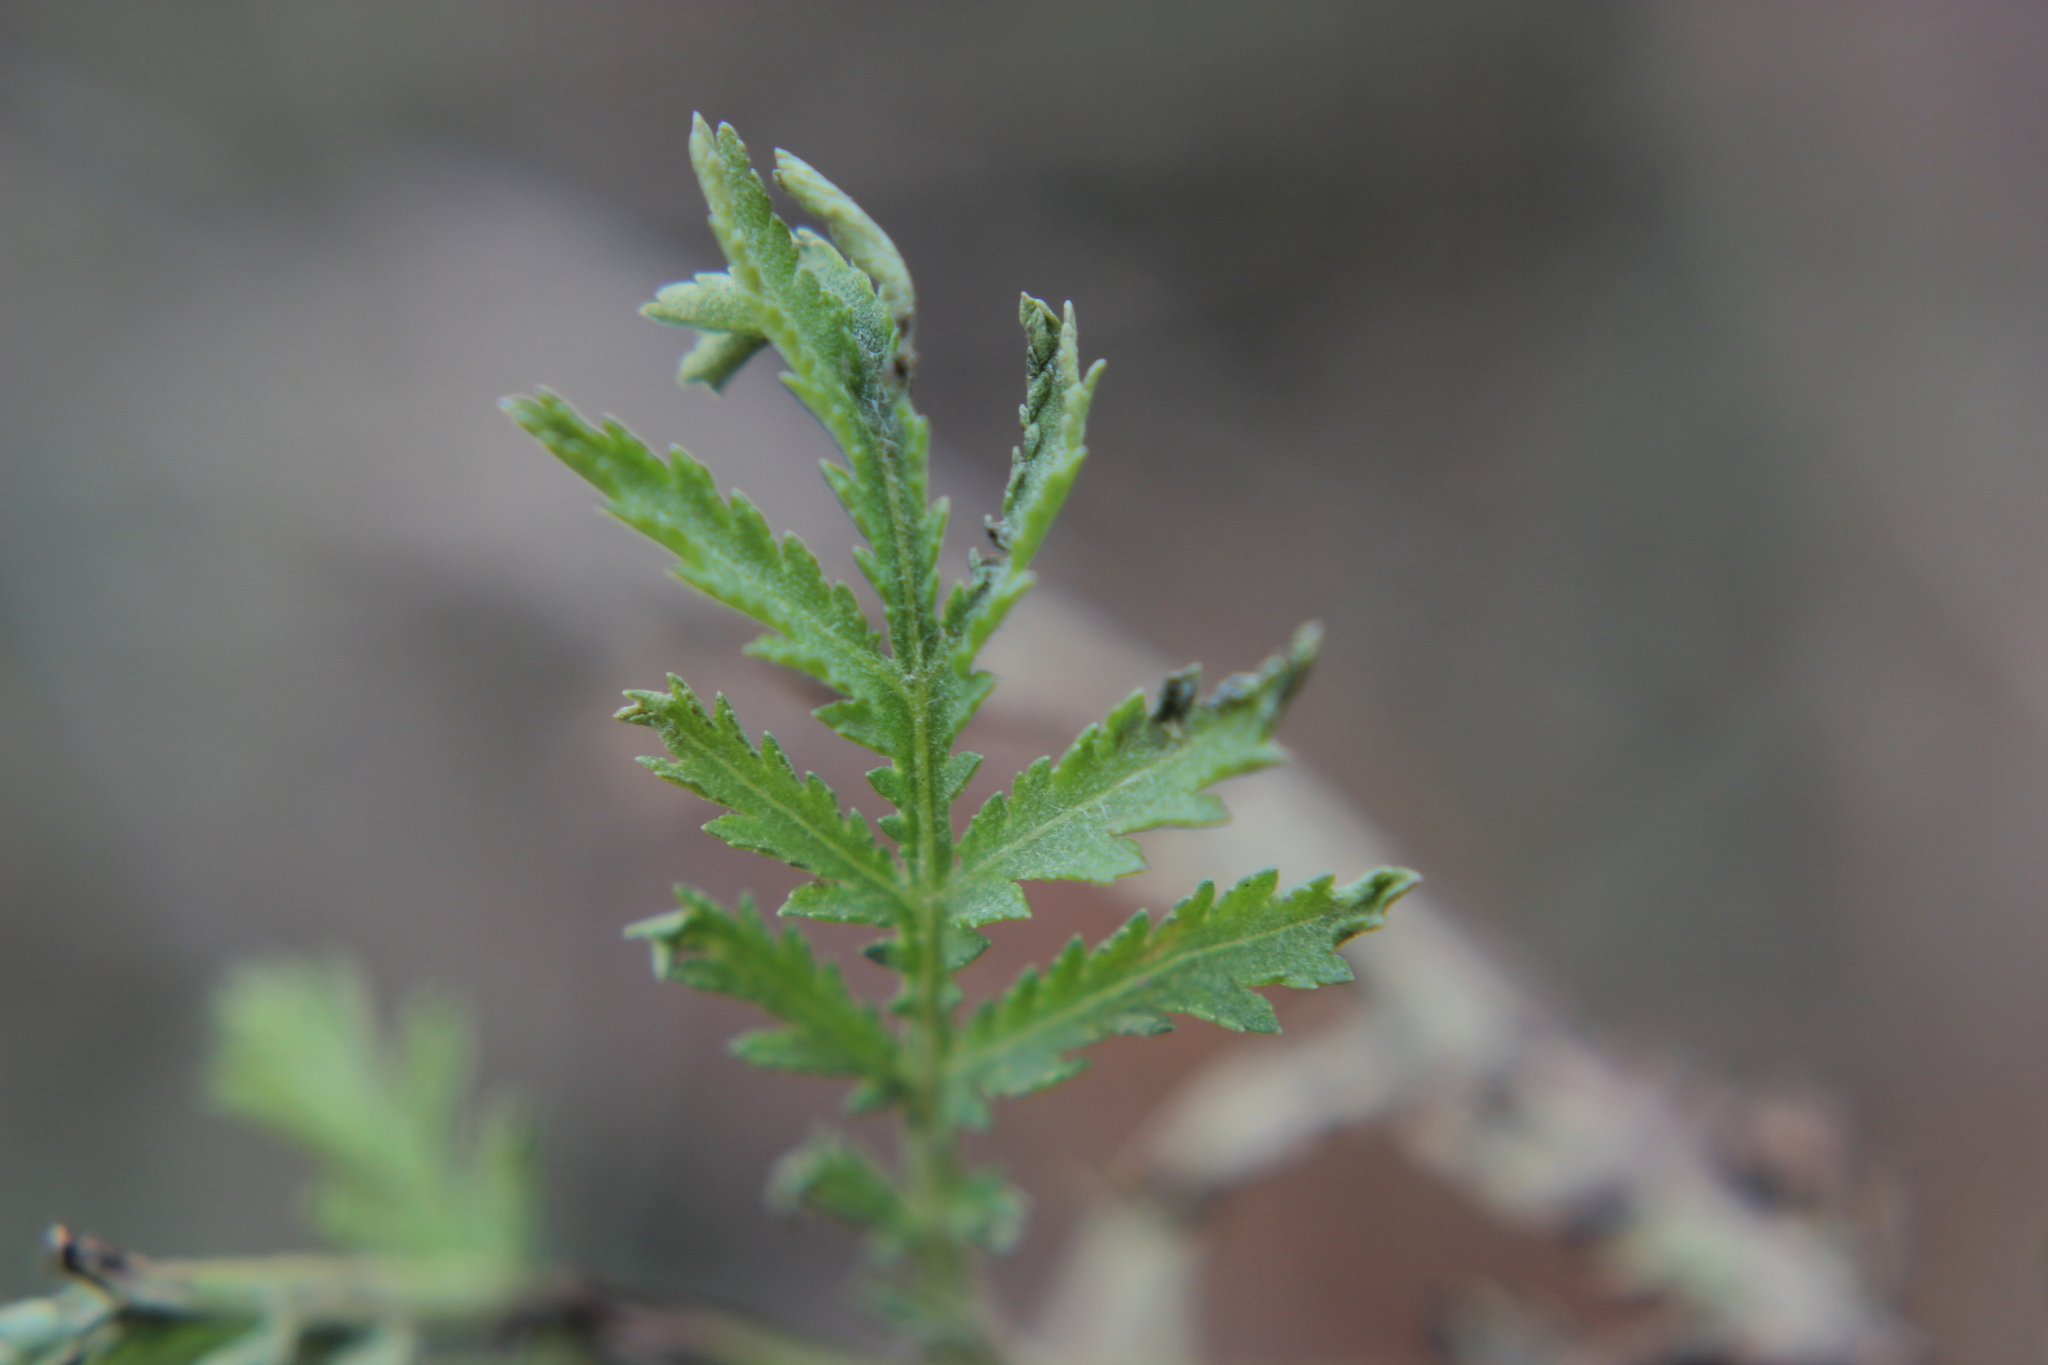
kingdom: Plantae
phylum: Tracheophyta
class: Magnoliopsida
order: Asterales
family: Asteraceae
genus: Tanacetum
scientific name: Tanacetum vulgare
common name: Common tansy
